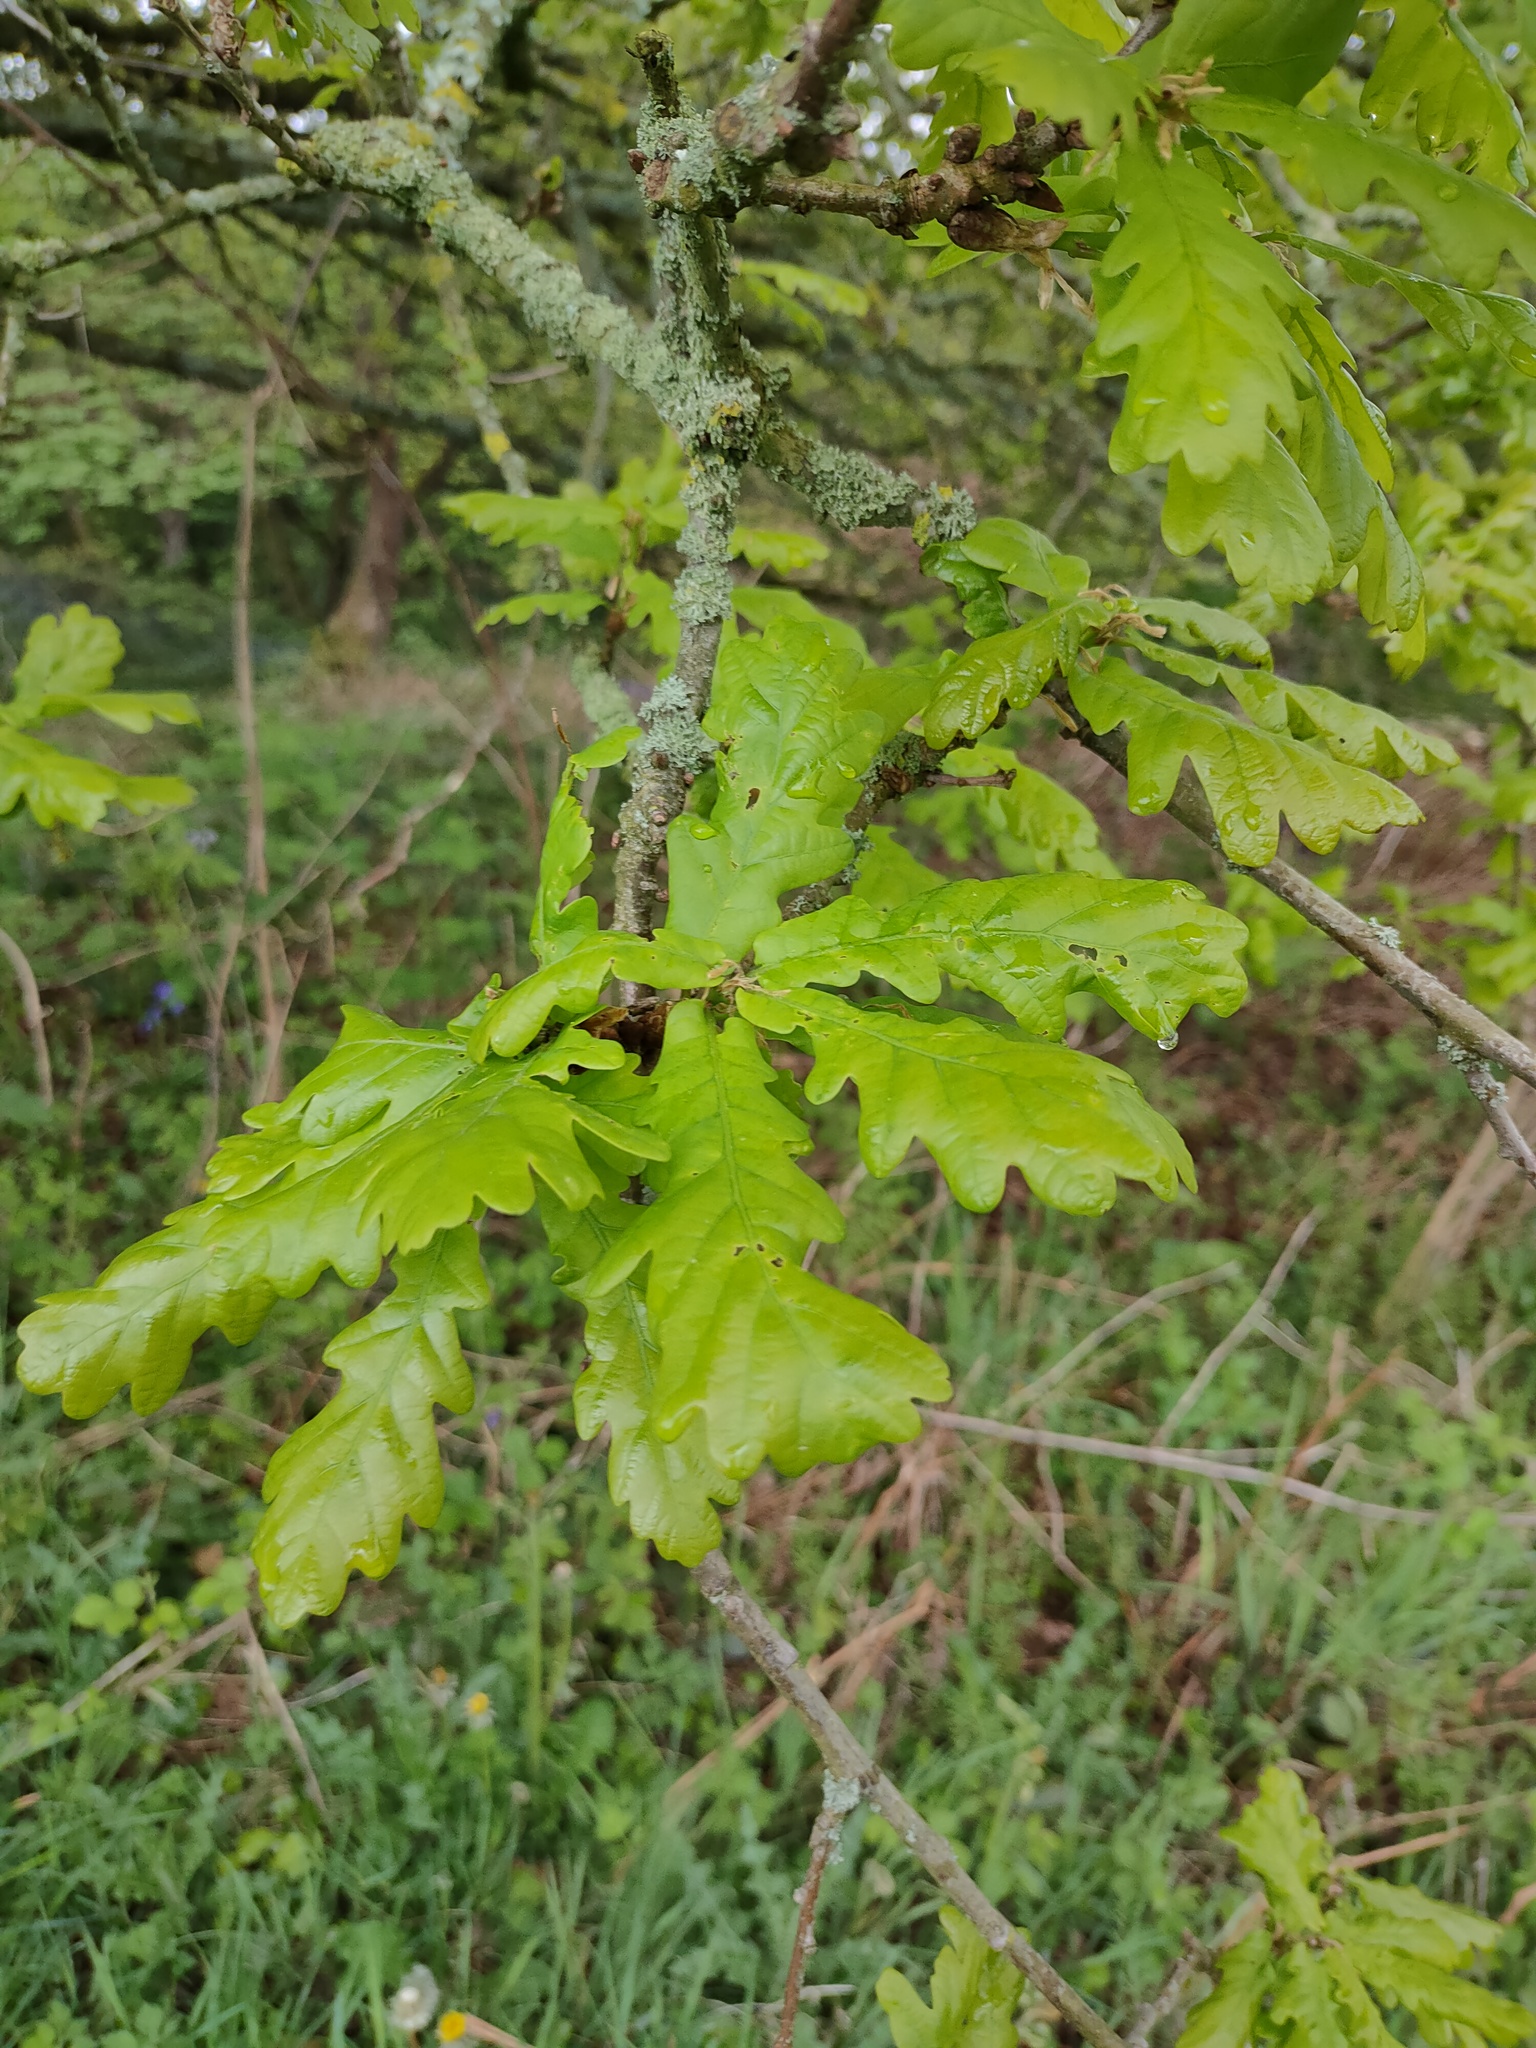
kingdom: Plantae
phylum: Tracheophyta
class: Magnoliopsida
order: Fagales
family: Fagaceae
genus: Quercus
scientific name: Quercus robur
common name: Pedunculate oak
